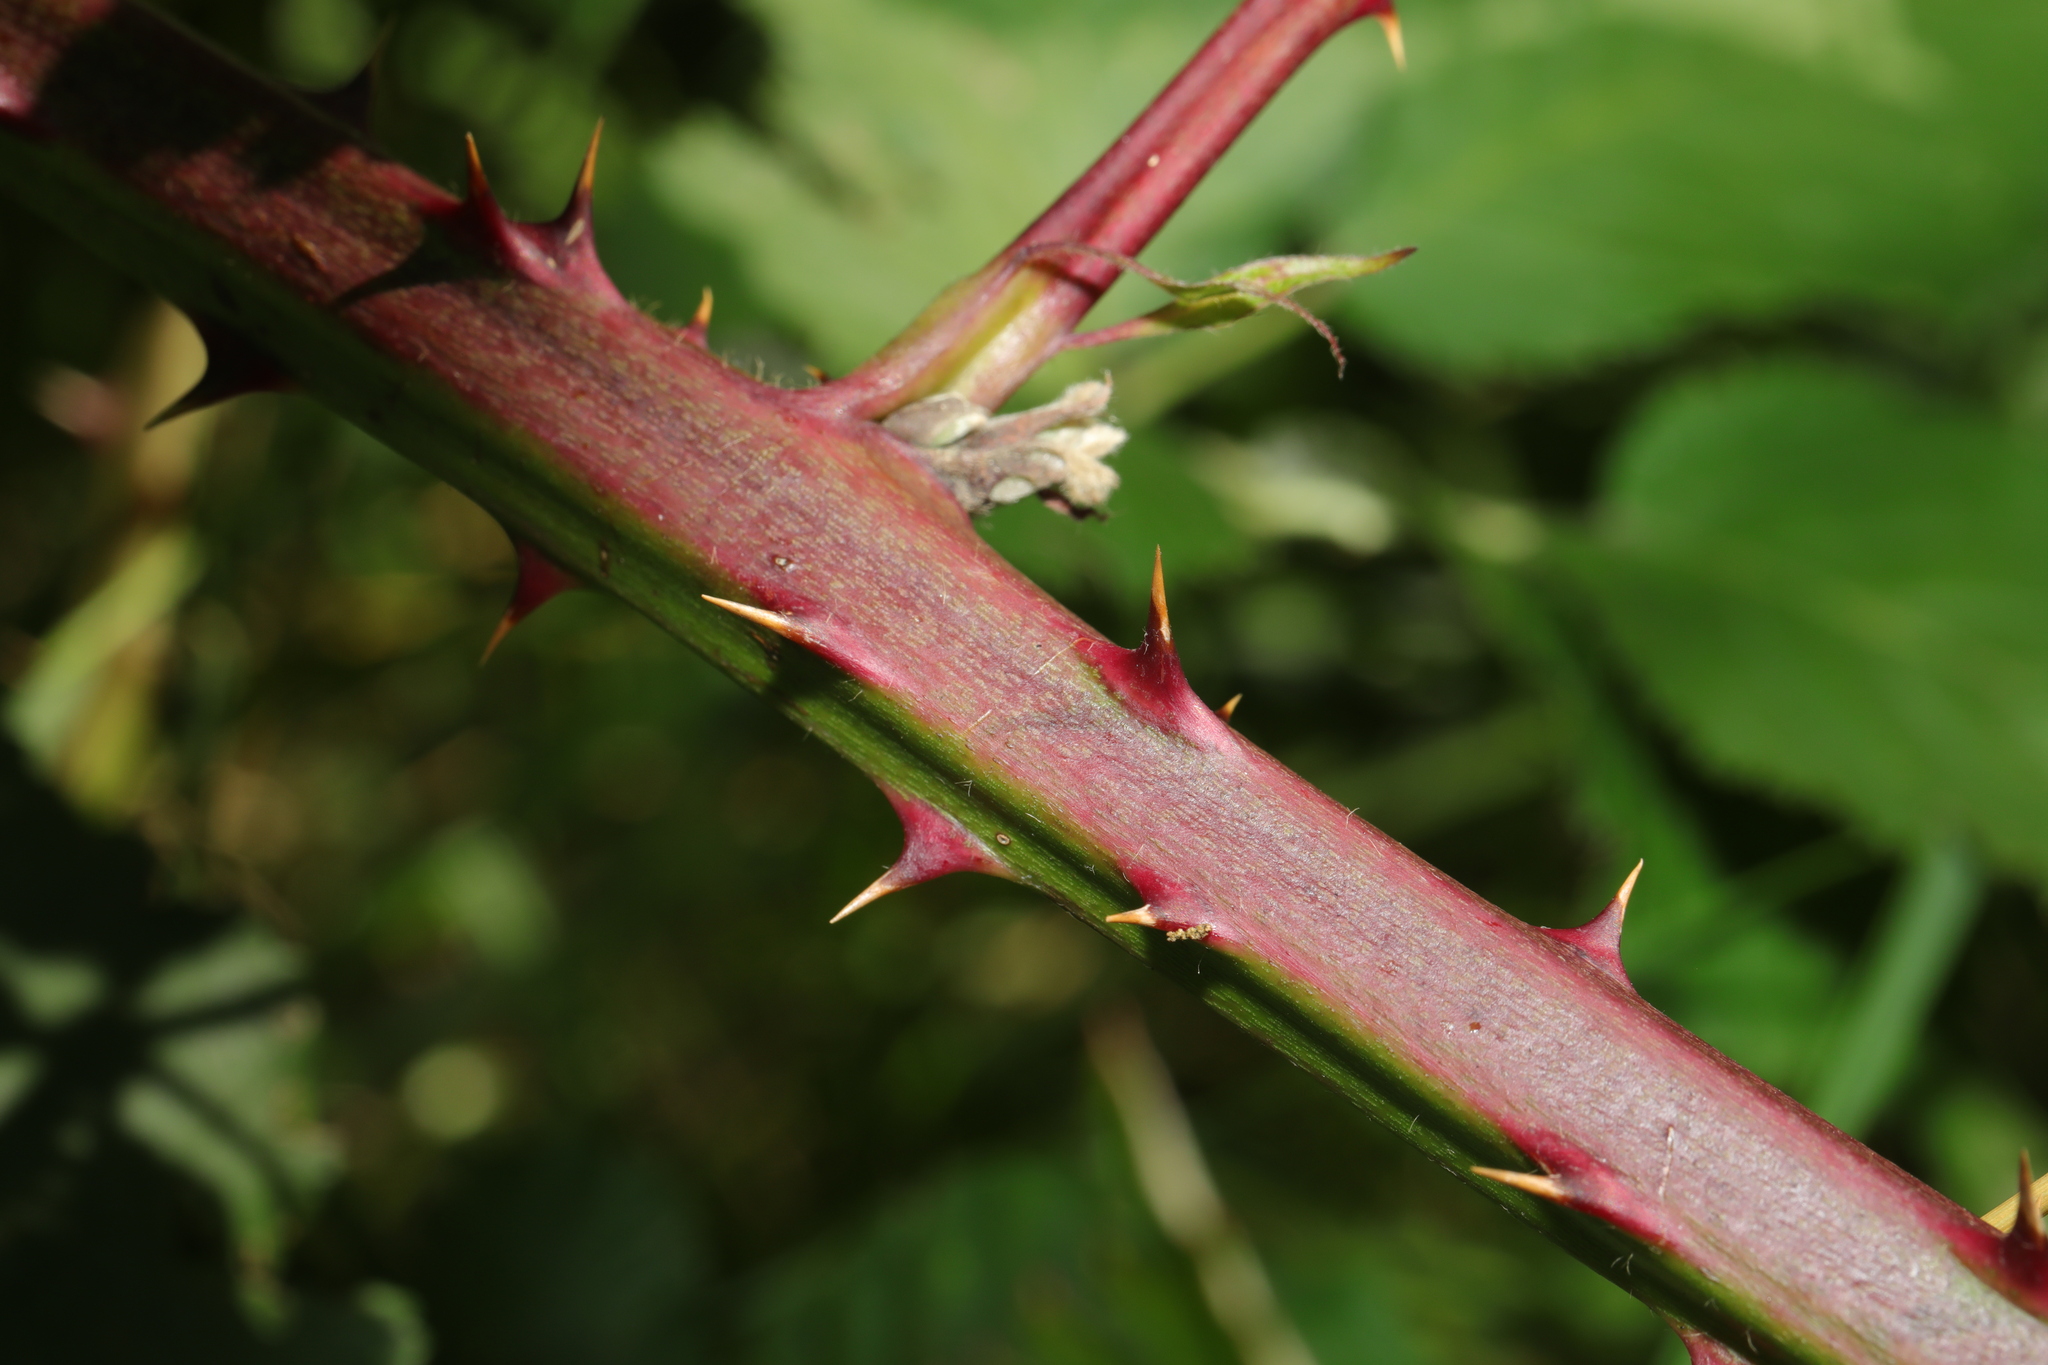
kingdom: Plantae
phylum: Tracheophyta
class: Magnoliopsida
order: Rosales
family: Rosaceae
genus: Rubus
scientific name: Rubus armeniacus
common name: Himalayan blackberry
